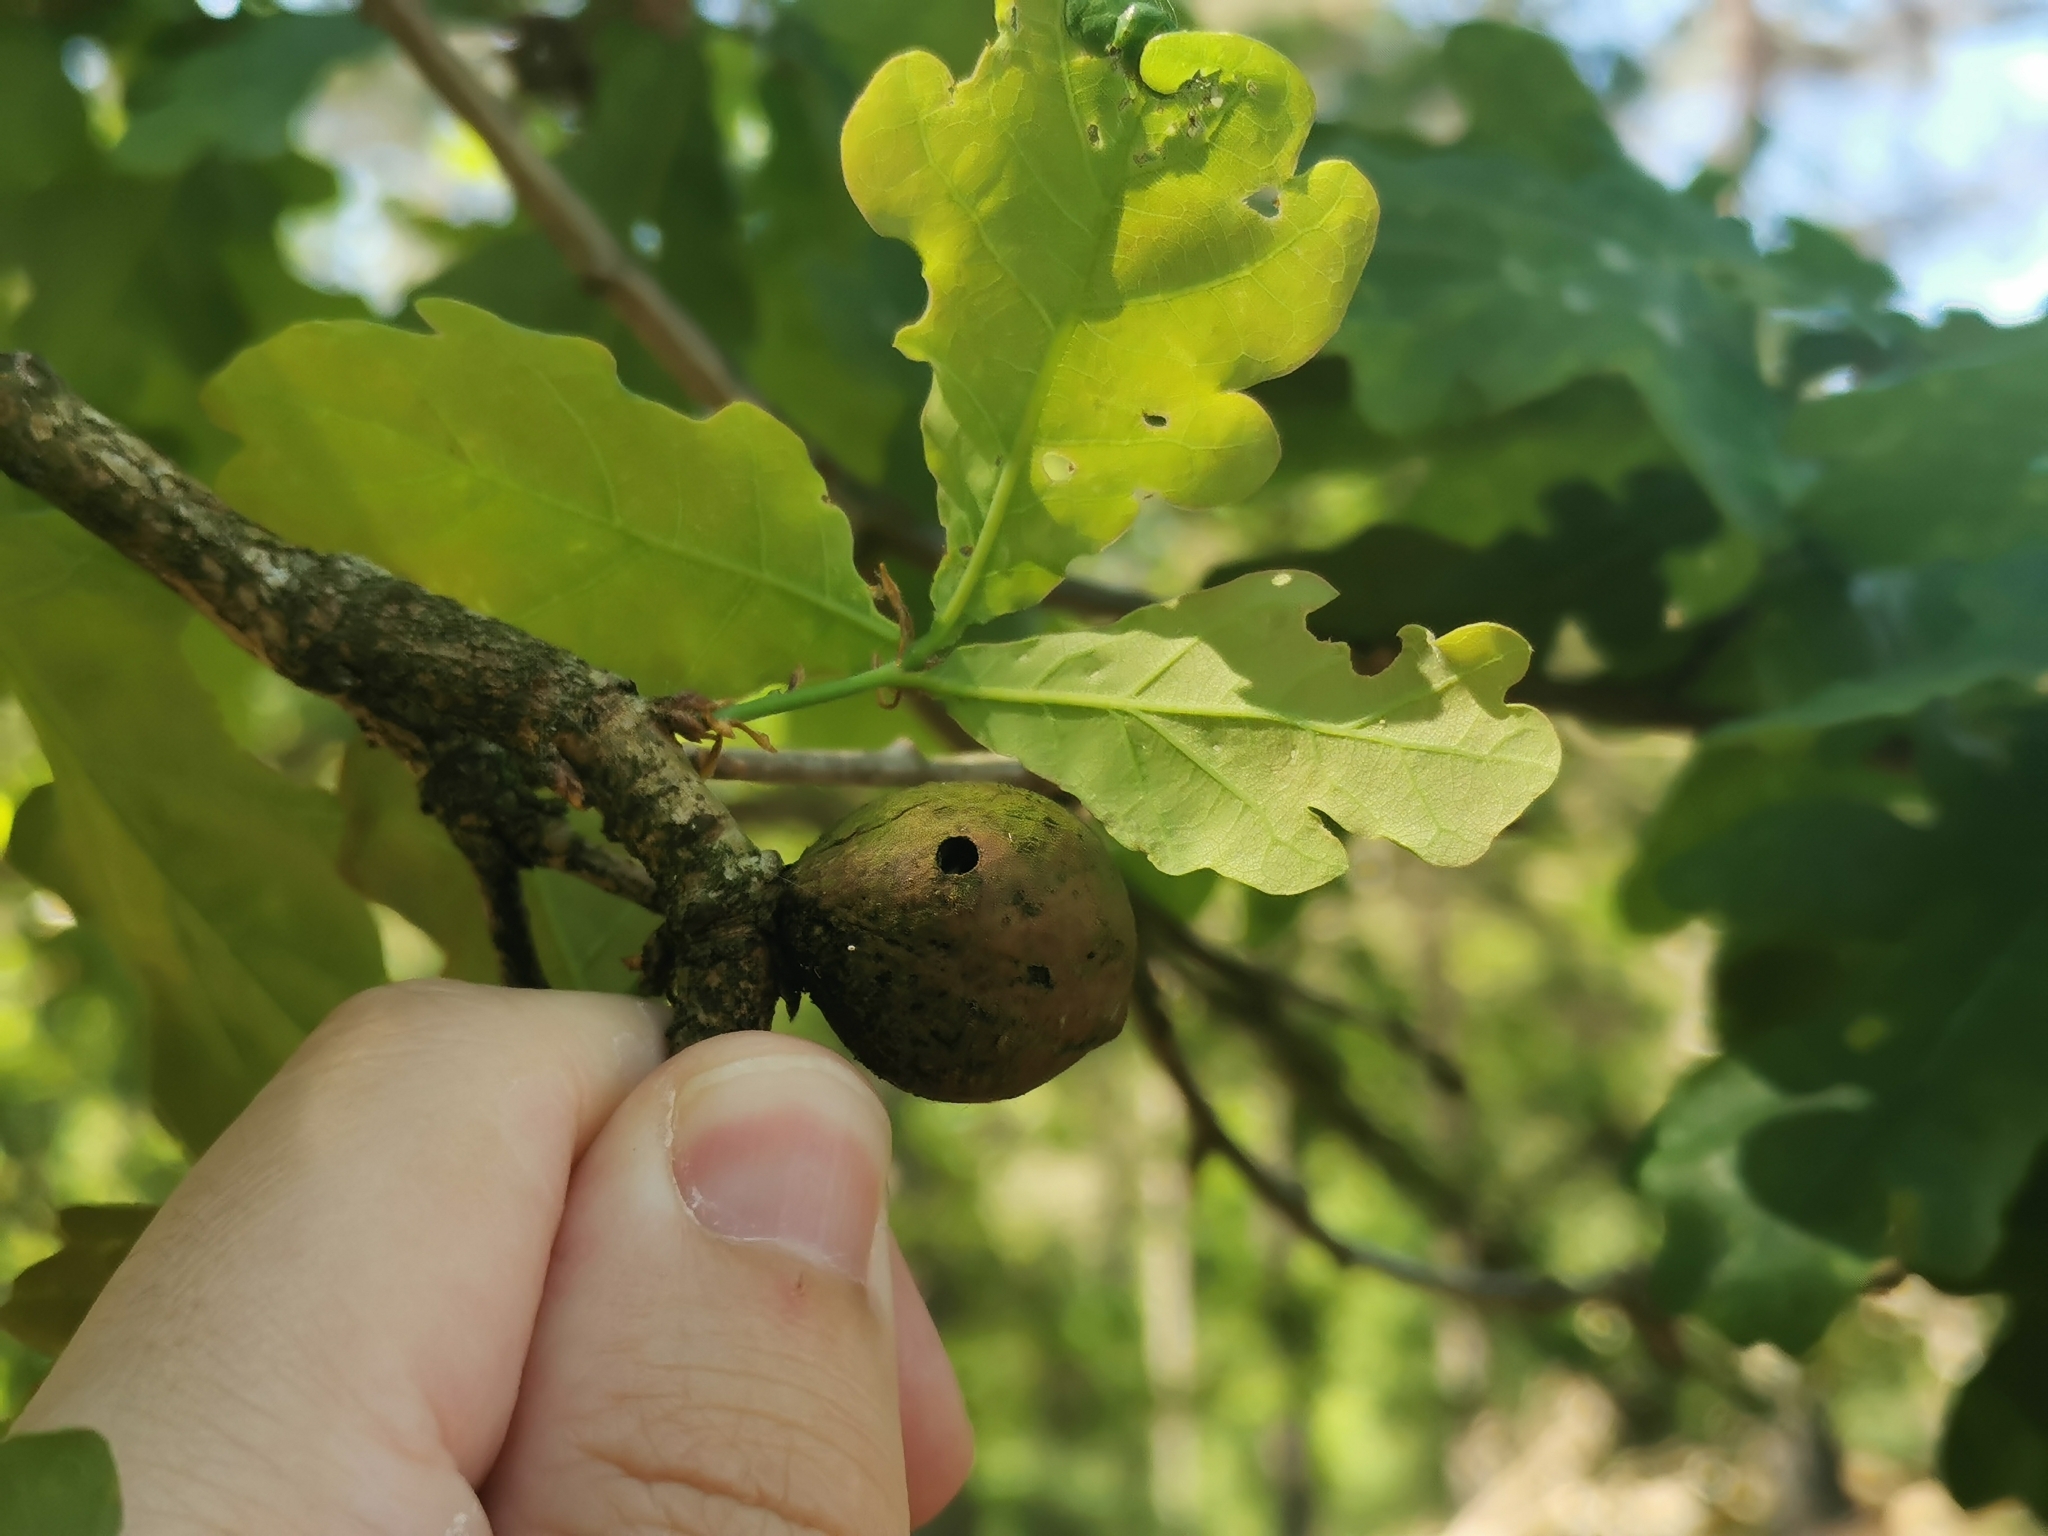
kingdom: Animalia
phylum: Arthropoda
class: Insecta
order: Hymenoptera
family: Cynipidae
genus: Andricus
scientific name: Andricus kollari
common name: Marble gall
